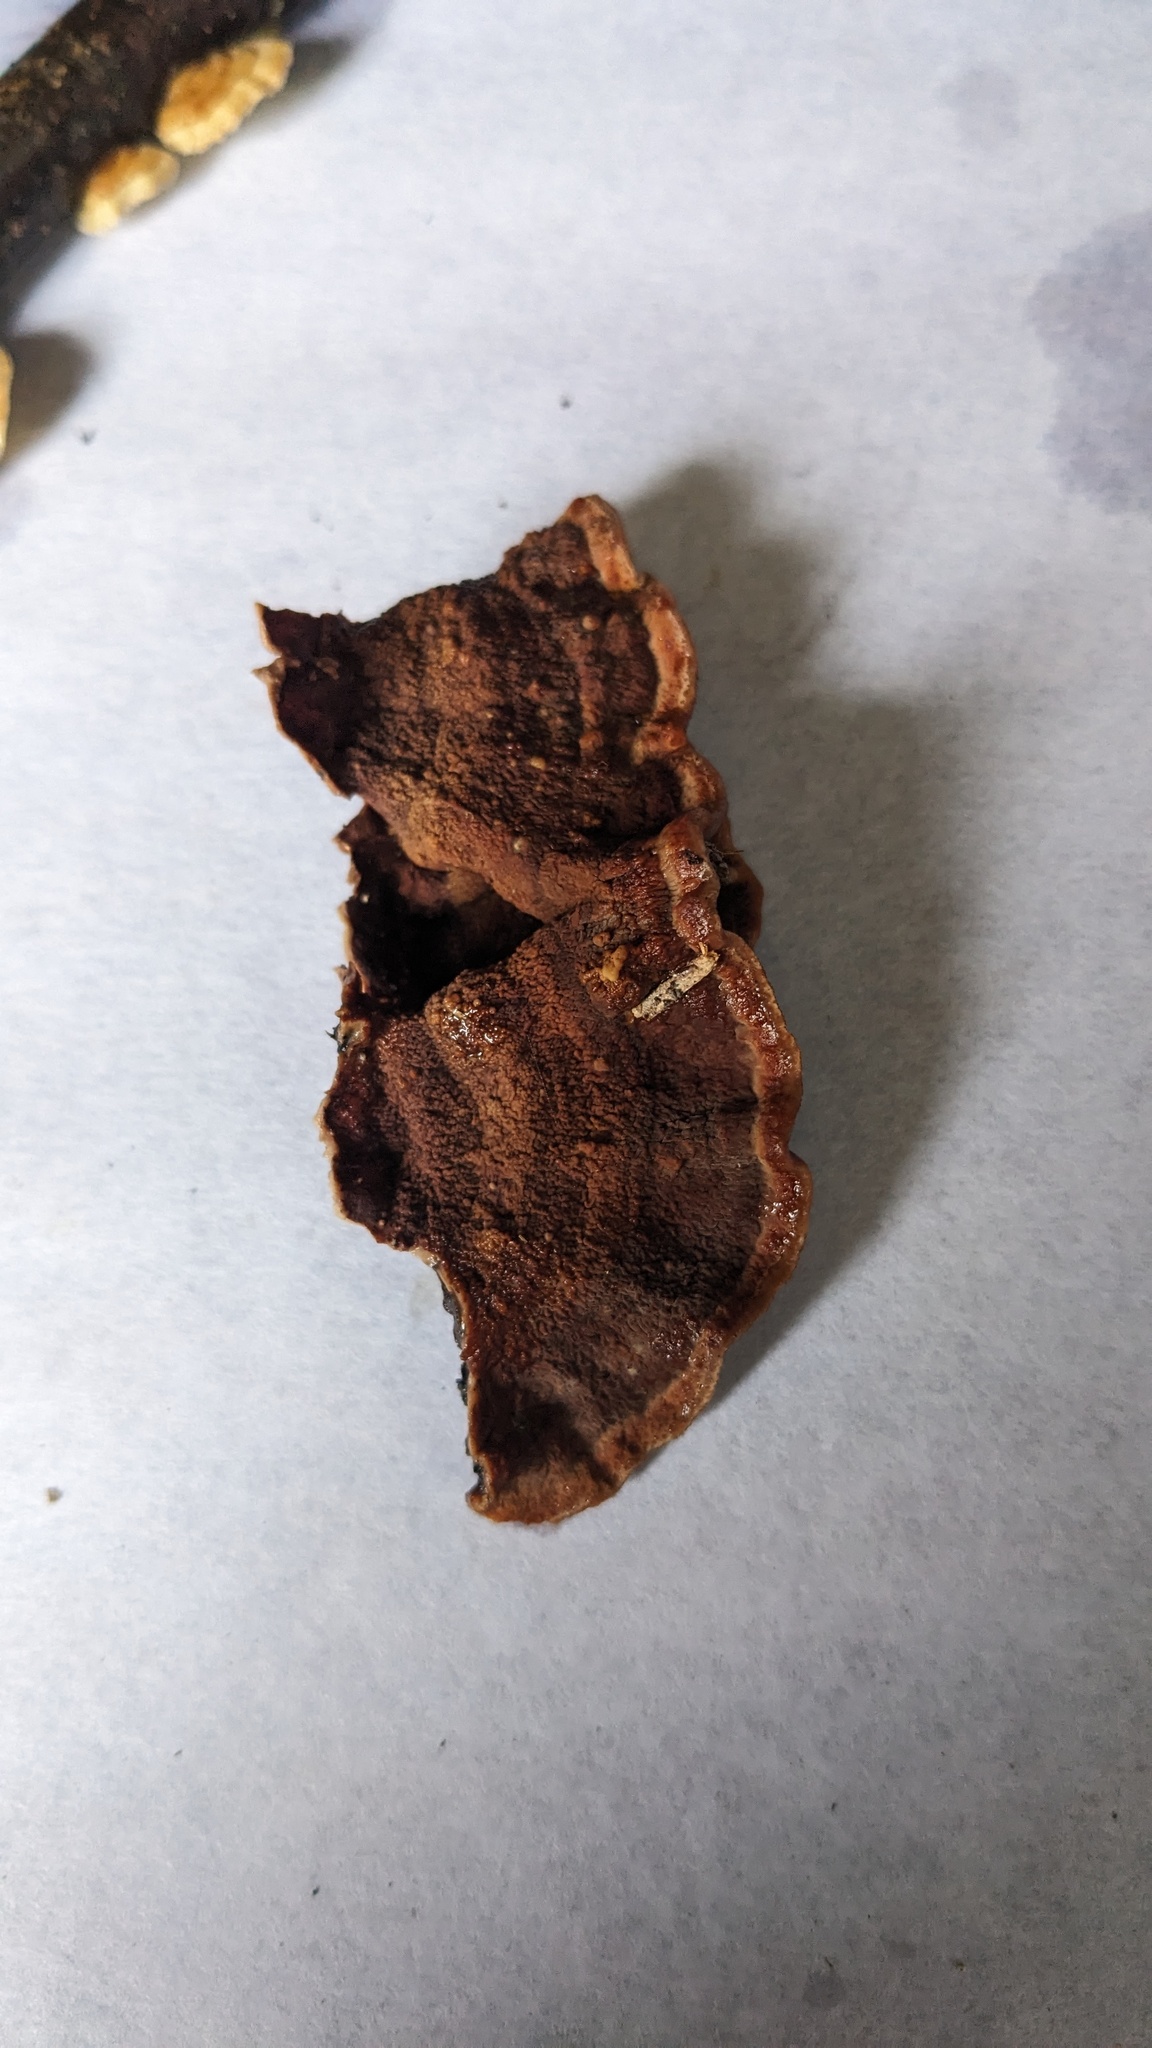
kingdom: Fungi
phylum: Basidiomycota
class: Agaricomycetes
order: Corticiales
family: Punctulariaceae
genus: Punctularia
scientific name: Punctularia strigosozonata
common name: White-rot fungus
